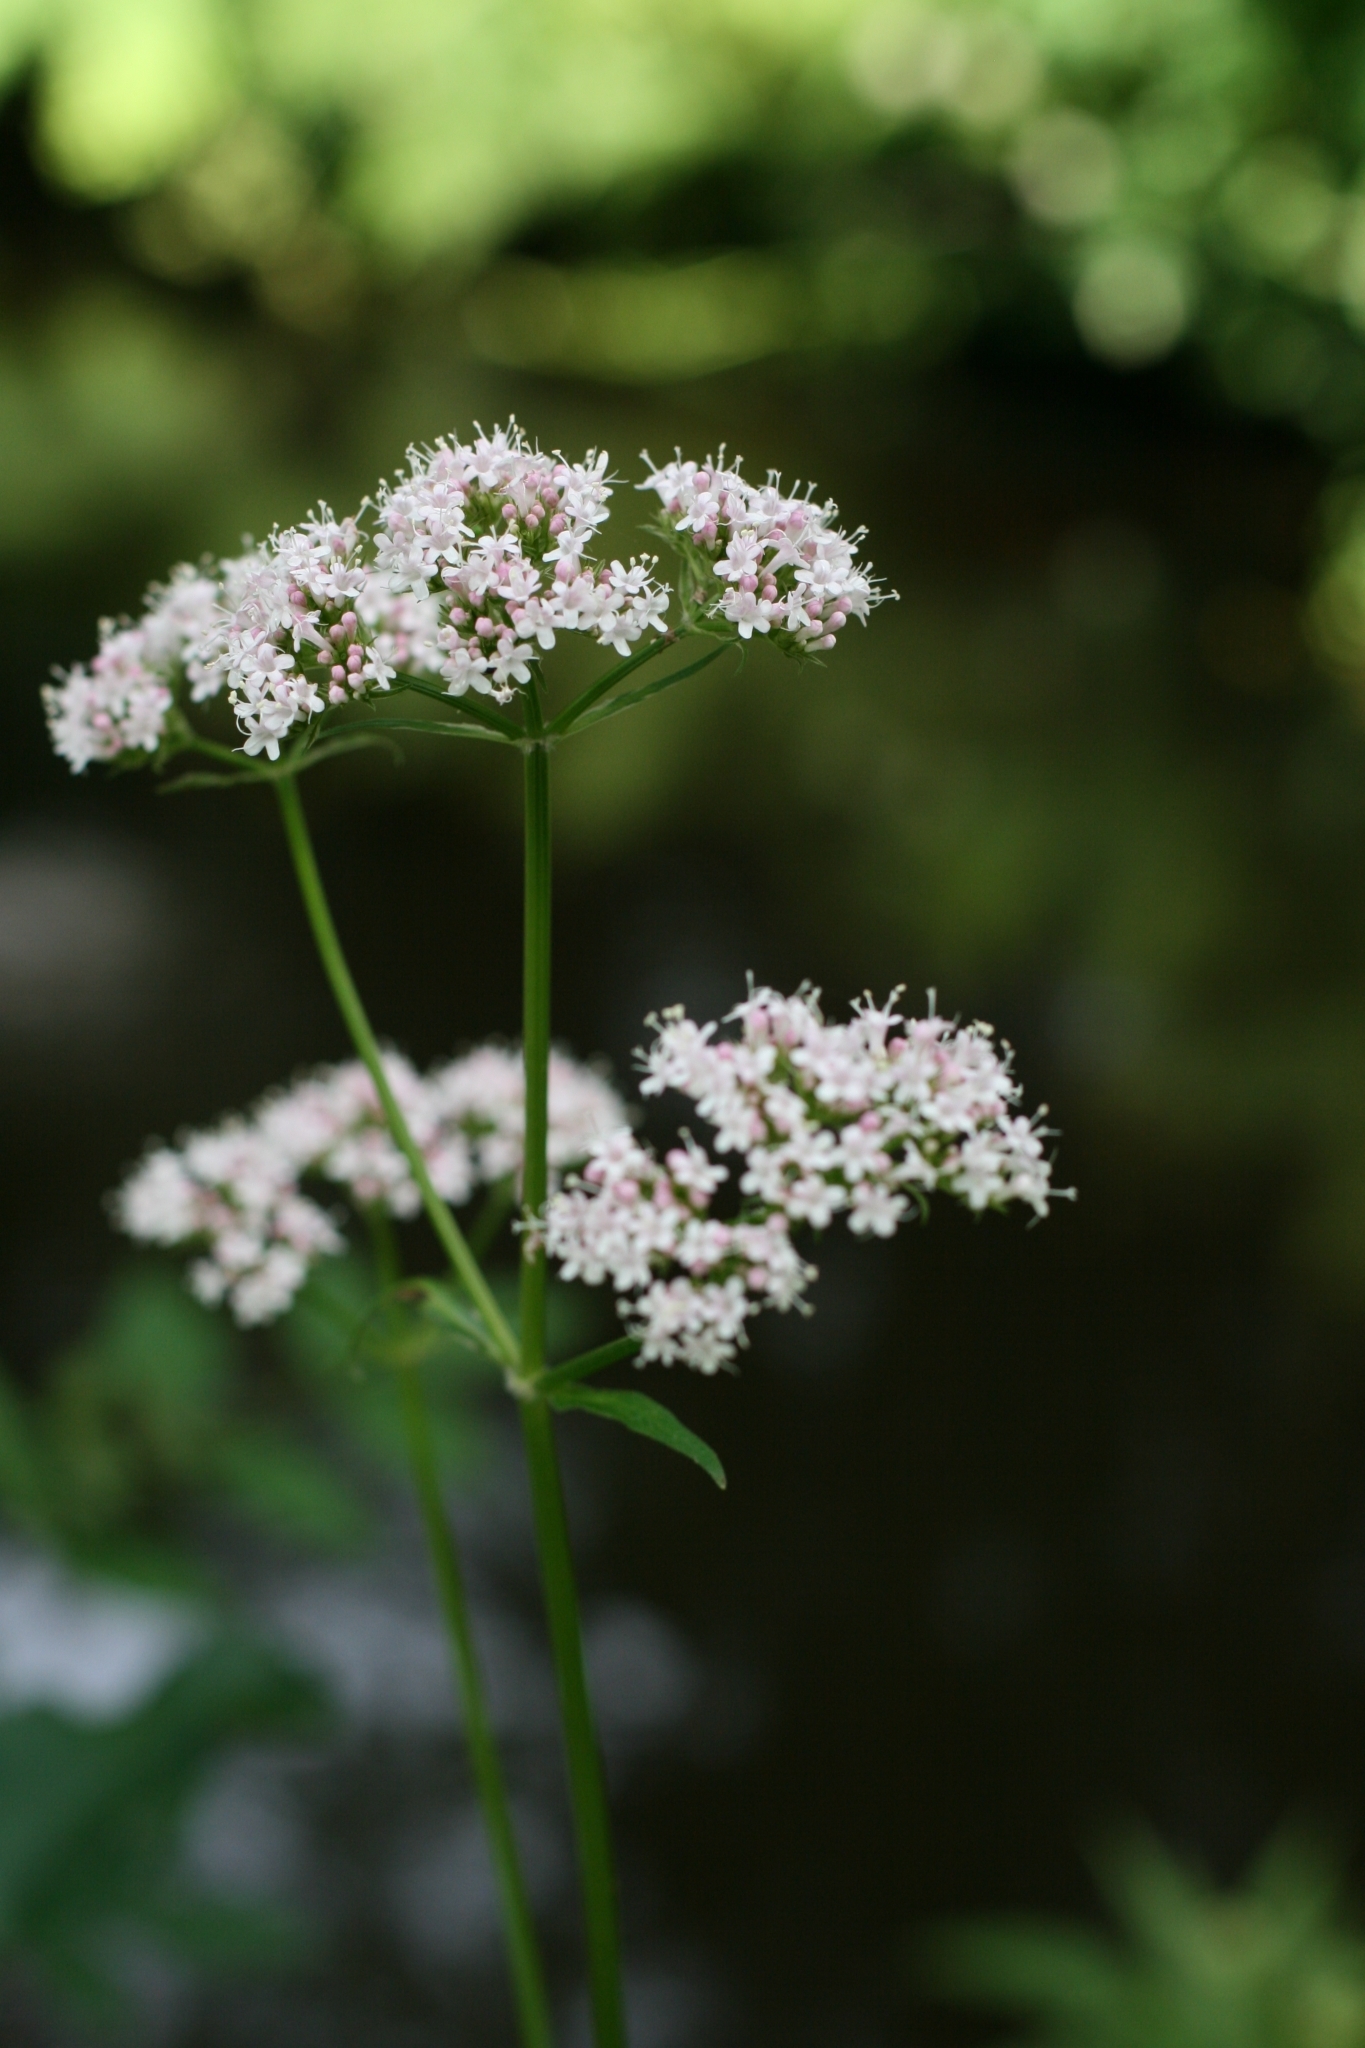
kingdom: Plantae
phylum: Tracheophyta
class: Magnoliopsida
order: Dipsacales
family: Caprifoliaceae
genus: Valeriana
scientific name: Valeriana officinalis
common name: Common valerian
